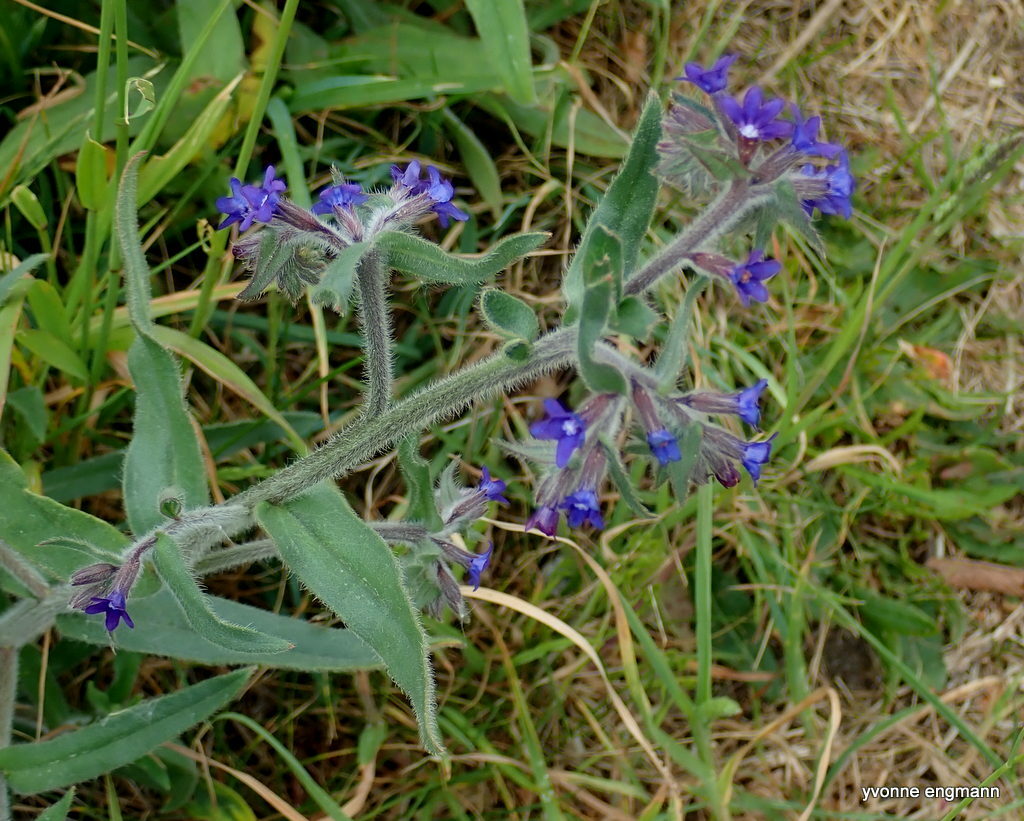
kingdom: Plantae
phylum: Tracheophyta
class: Magnoliopsida
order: Boraginales
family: Boraginaceae
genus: Anchusa
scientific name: Anchusa officinalis
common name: Alkanet
